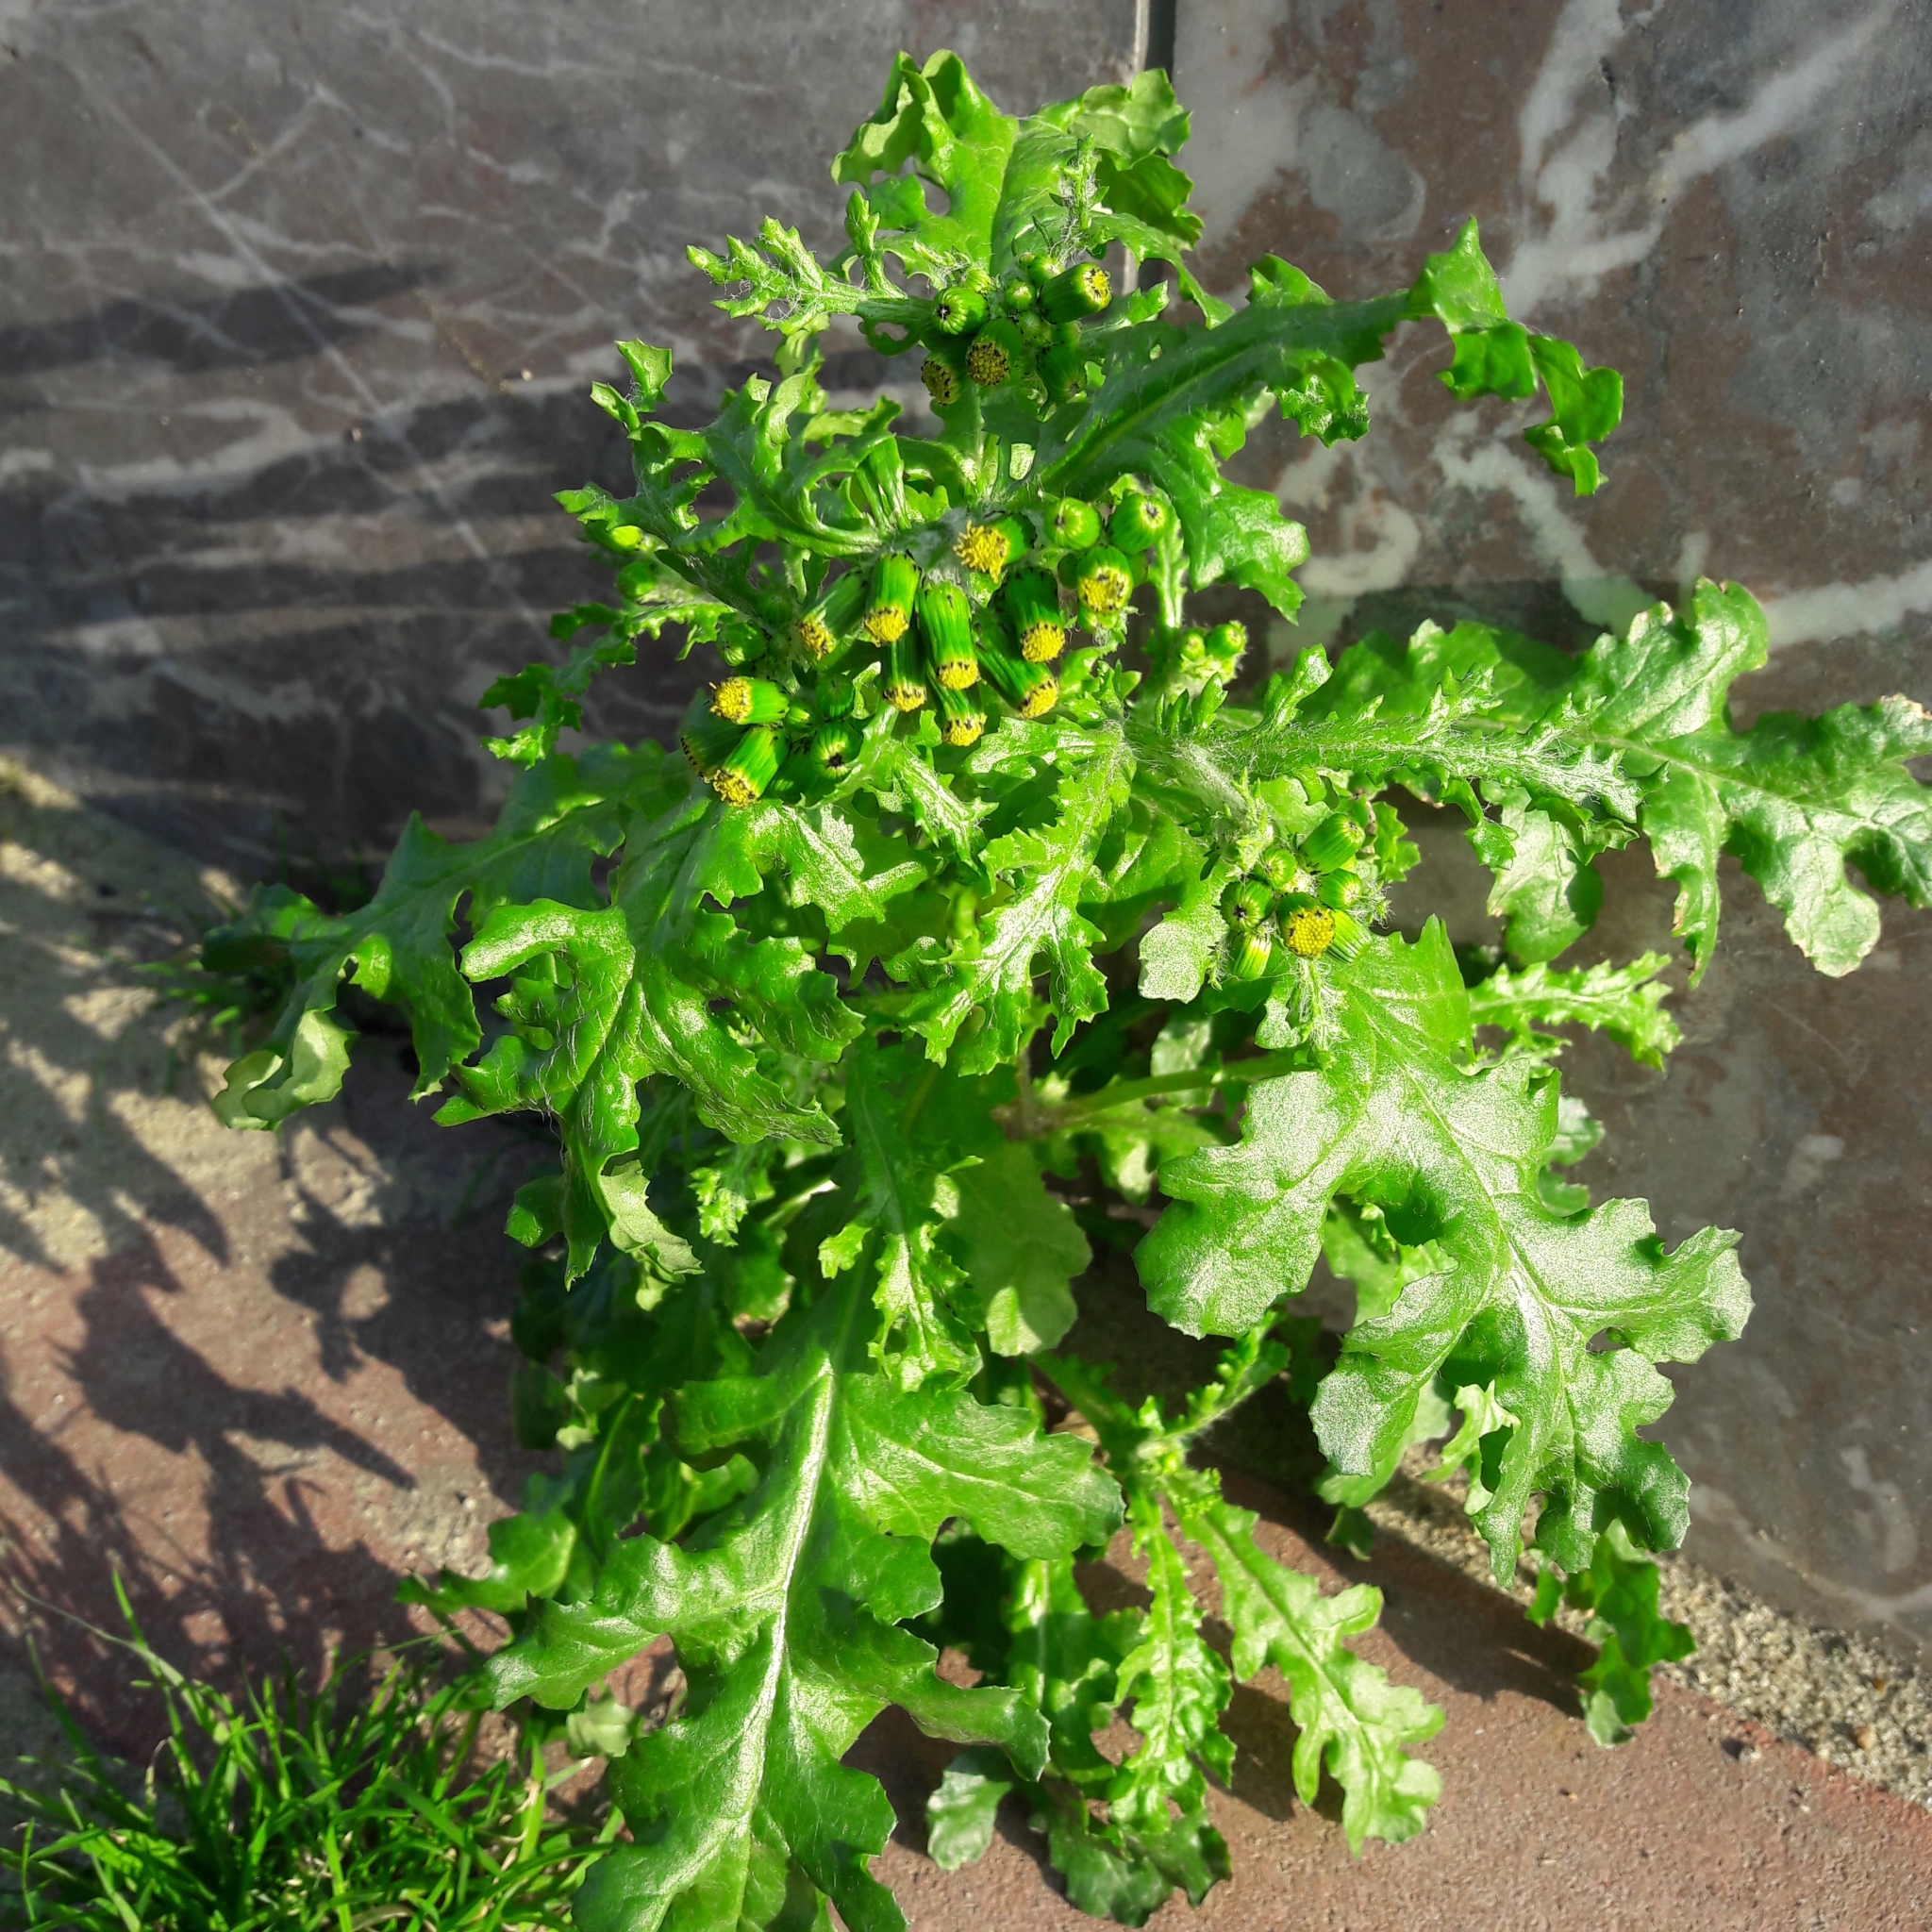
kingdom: Plantae
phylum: Tracheophyta
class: Magnoliopsida
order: Asterales
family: Asteraceae
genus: Senecio
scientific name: Senecio vulgaris
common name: Old-man-in-the-spring
